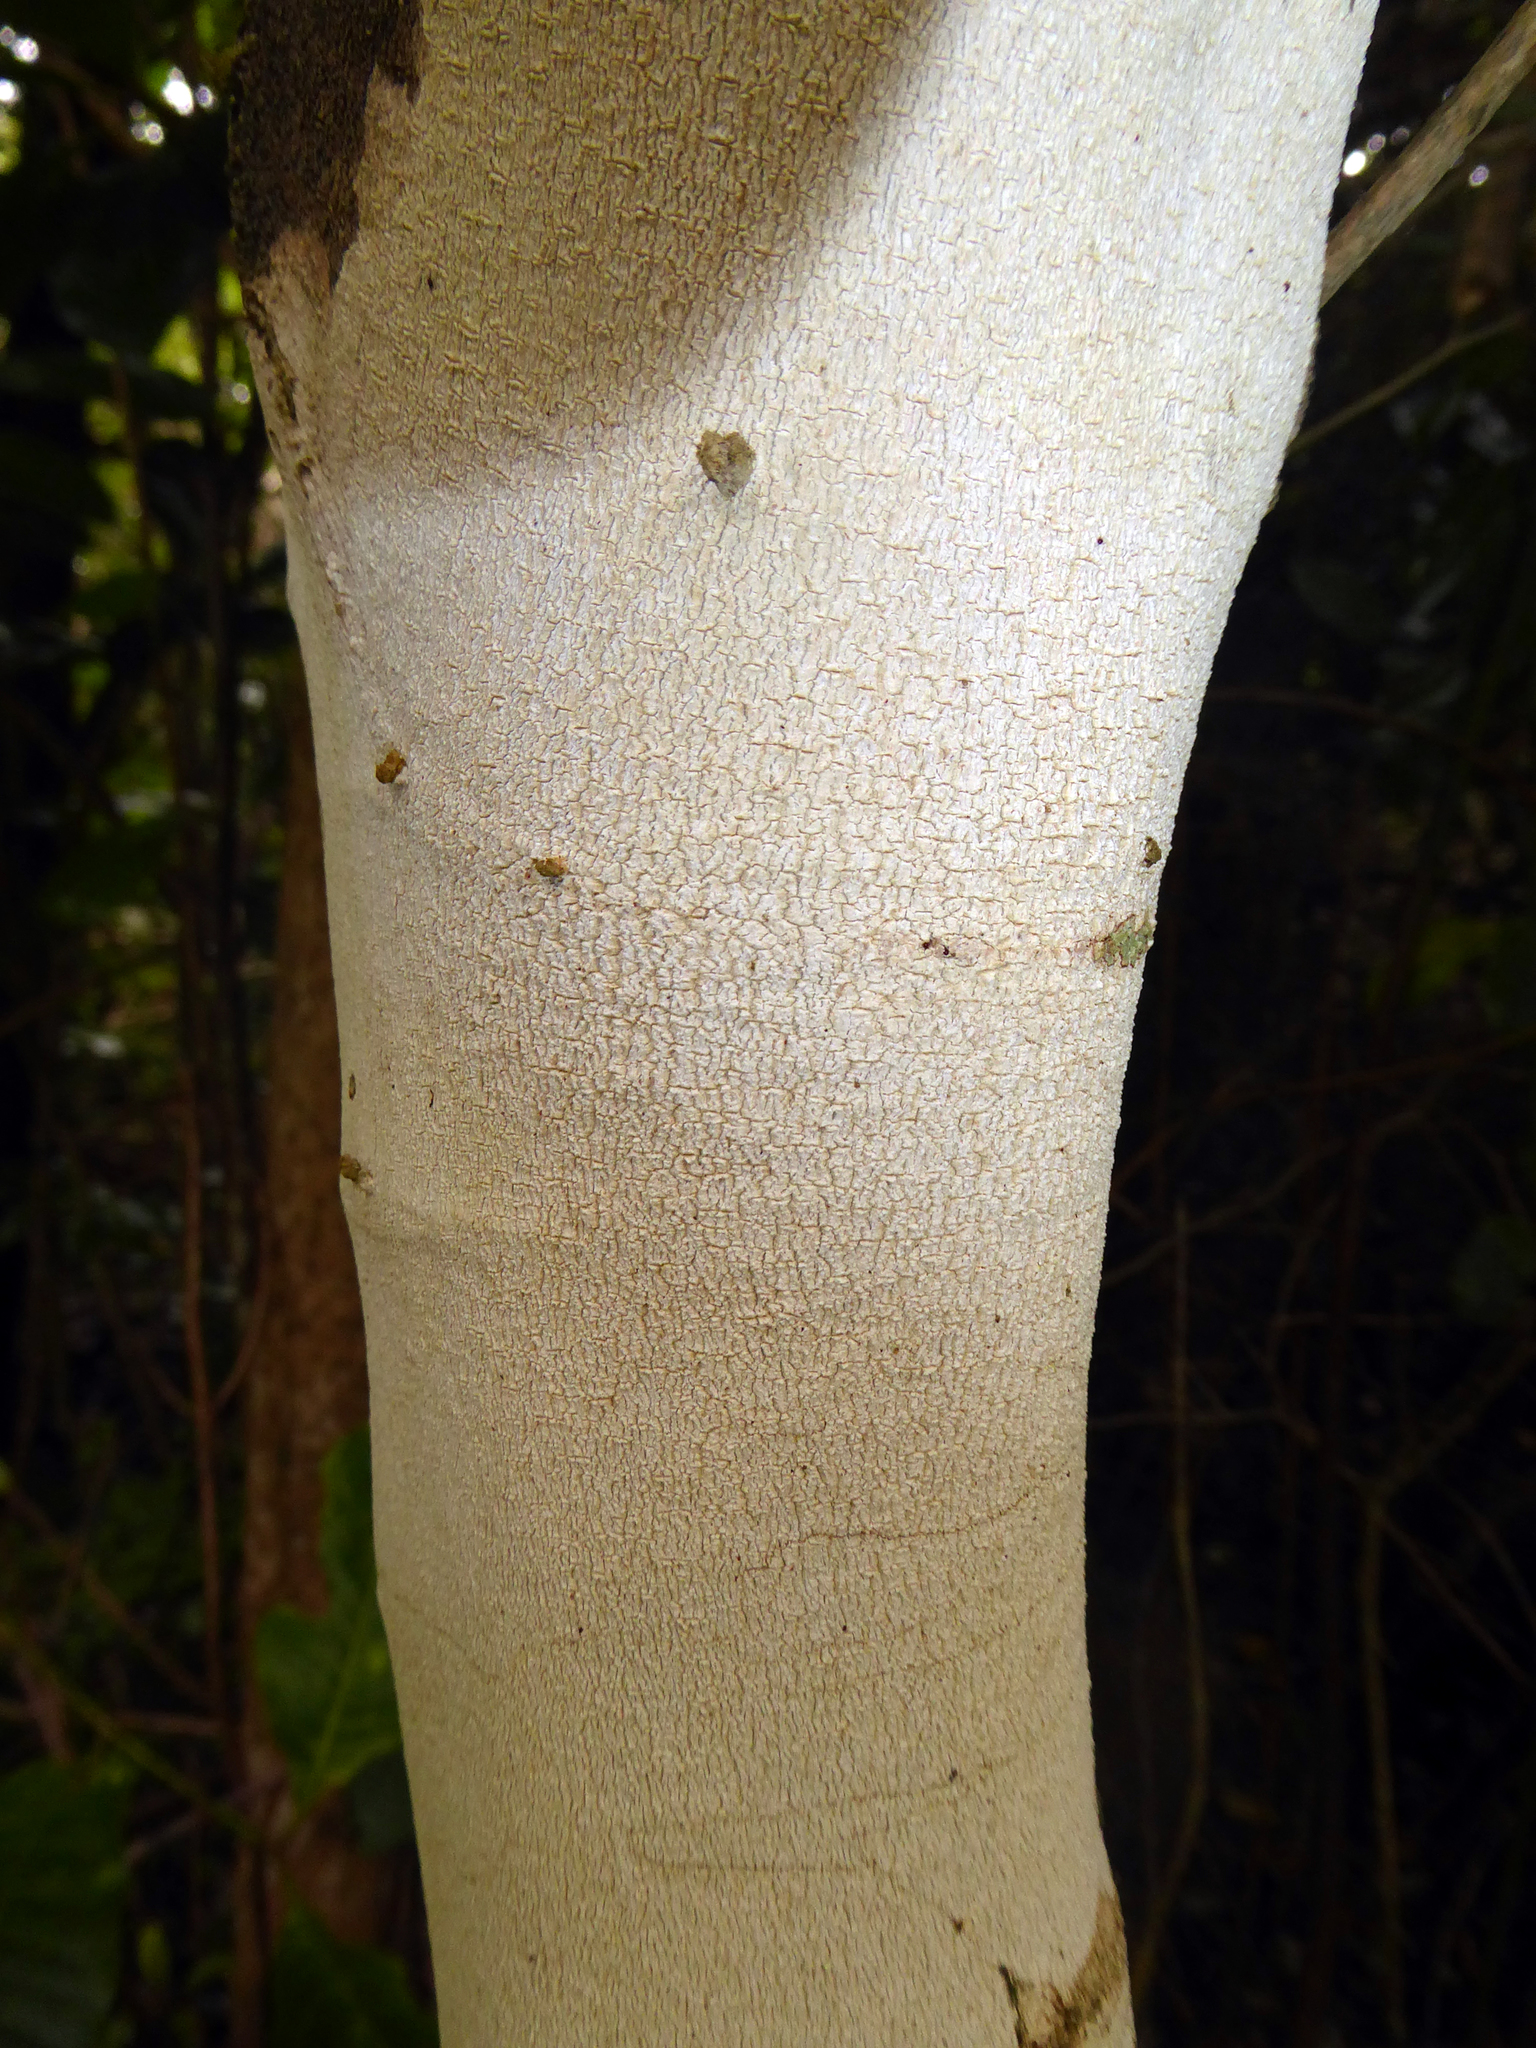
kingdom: Fungi
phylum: Ascomycota
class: Lecanoromycetes
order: Ostropales
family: Phlyctidaceae
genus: Phlyctis
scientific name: Phlyctis
